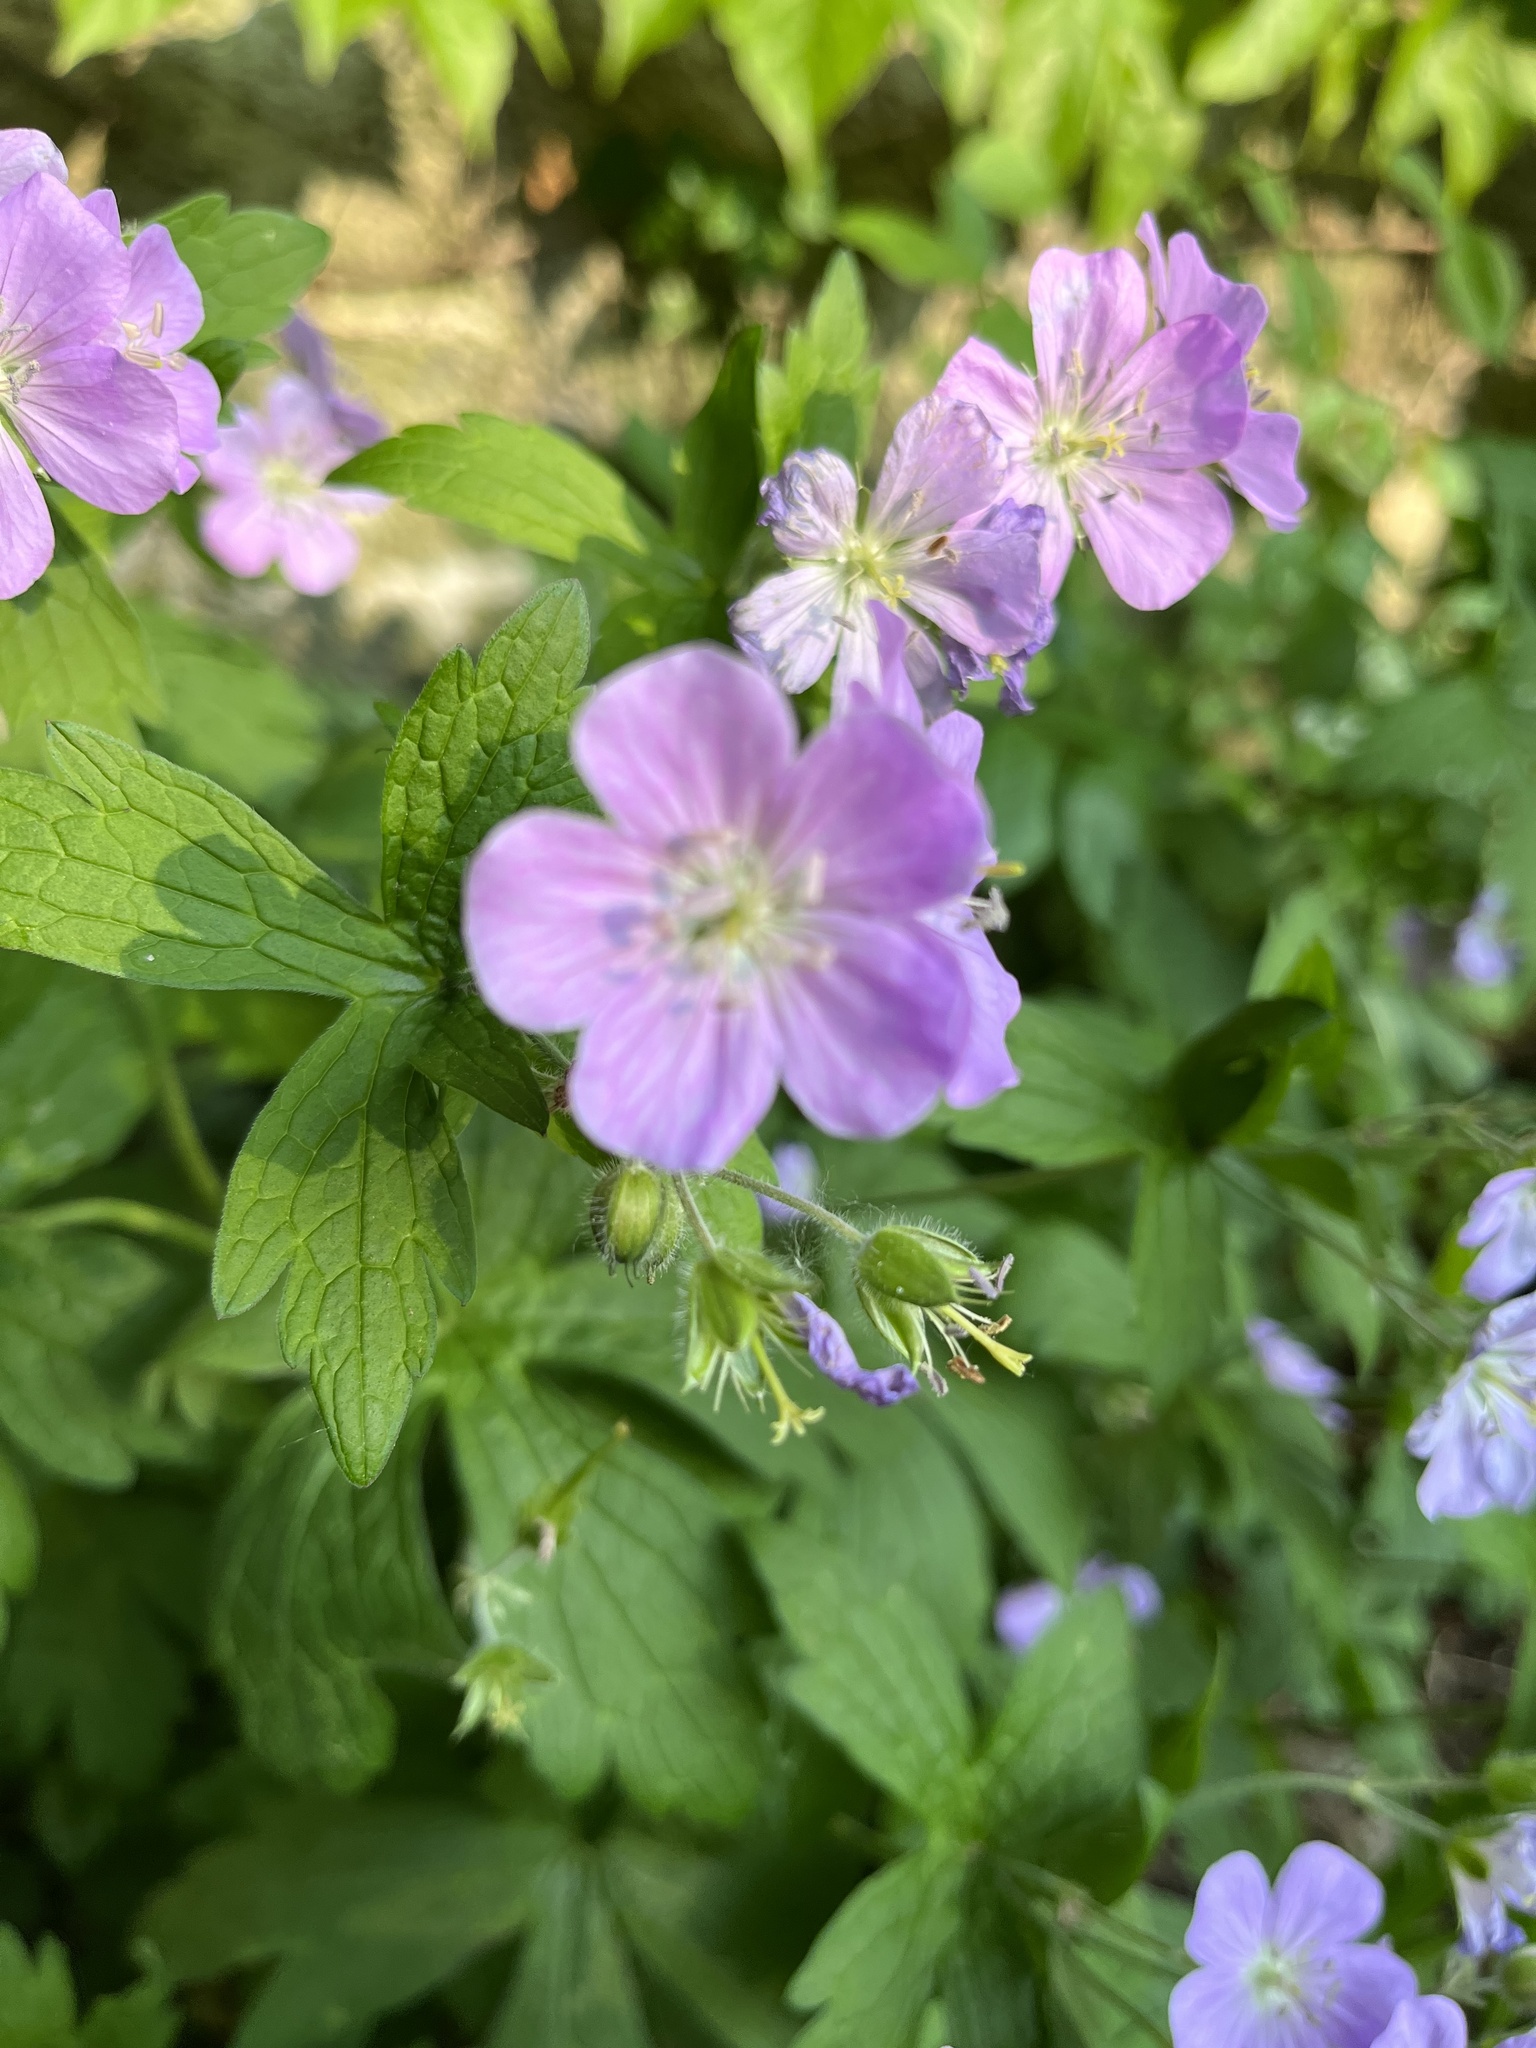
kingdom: Plantae
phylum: Tracheophyta
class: Magnoliopsida
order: Geraniales
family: Geraniaceae
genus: Geranium
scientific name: Geranium maculatum
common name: Spotted geranium
